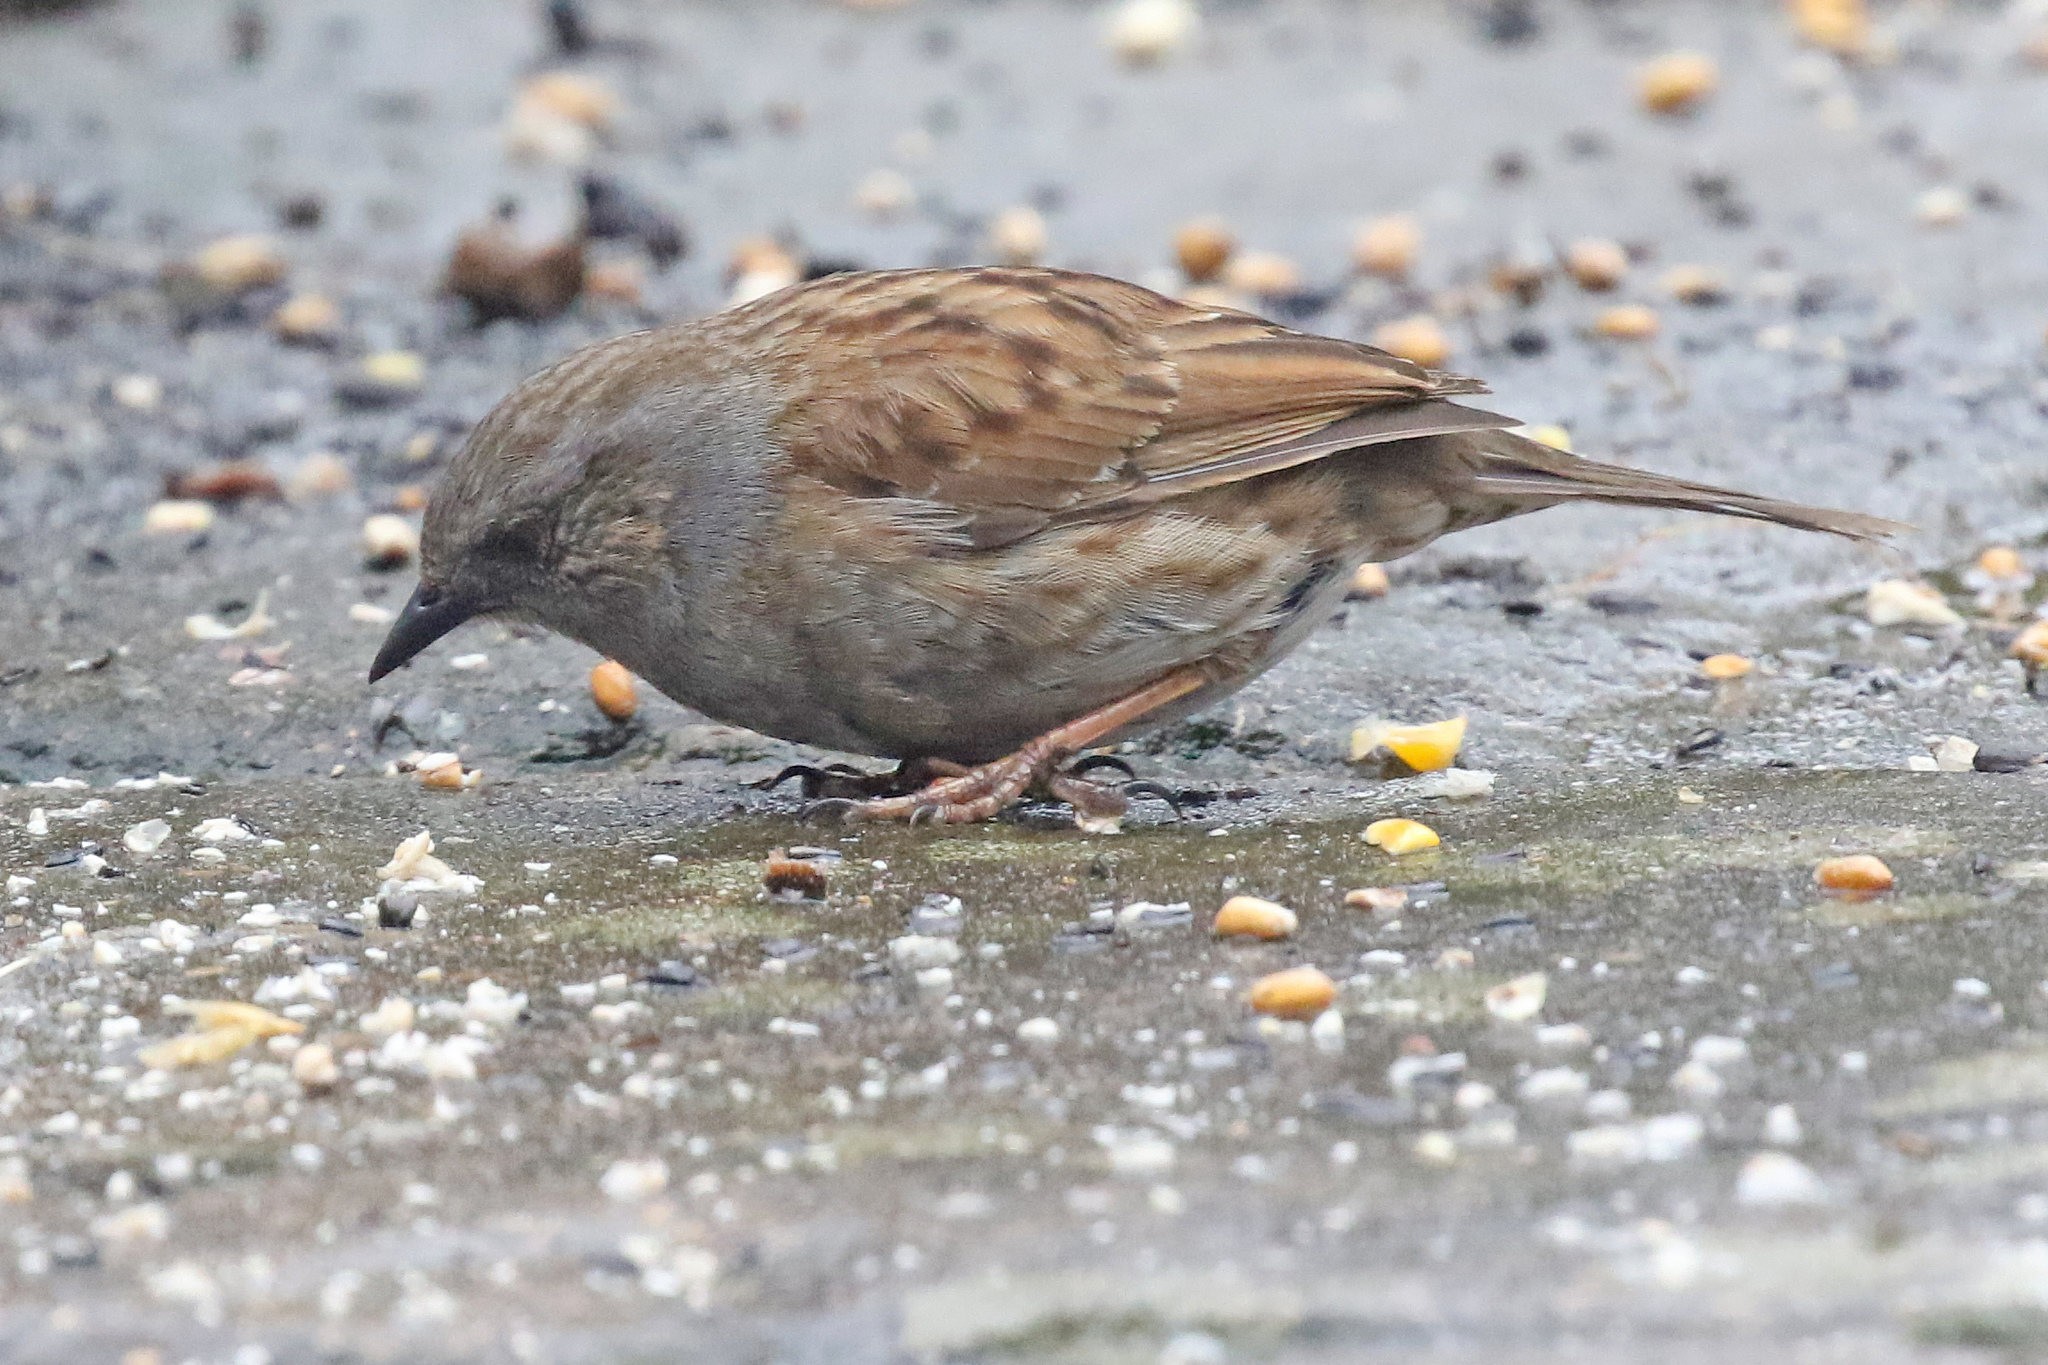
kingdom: Animalia
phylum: Chordata
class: Aves
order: Passeriformes
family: Prunellidae
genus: Prunella
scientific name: Prunella modularis
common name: Dunnock
